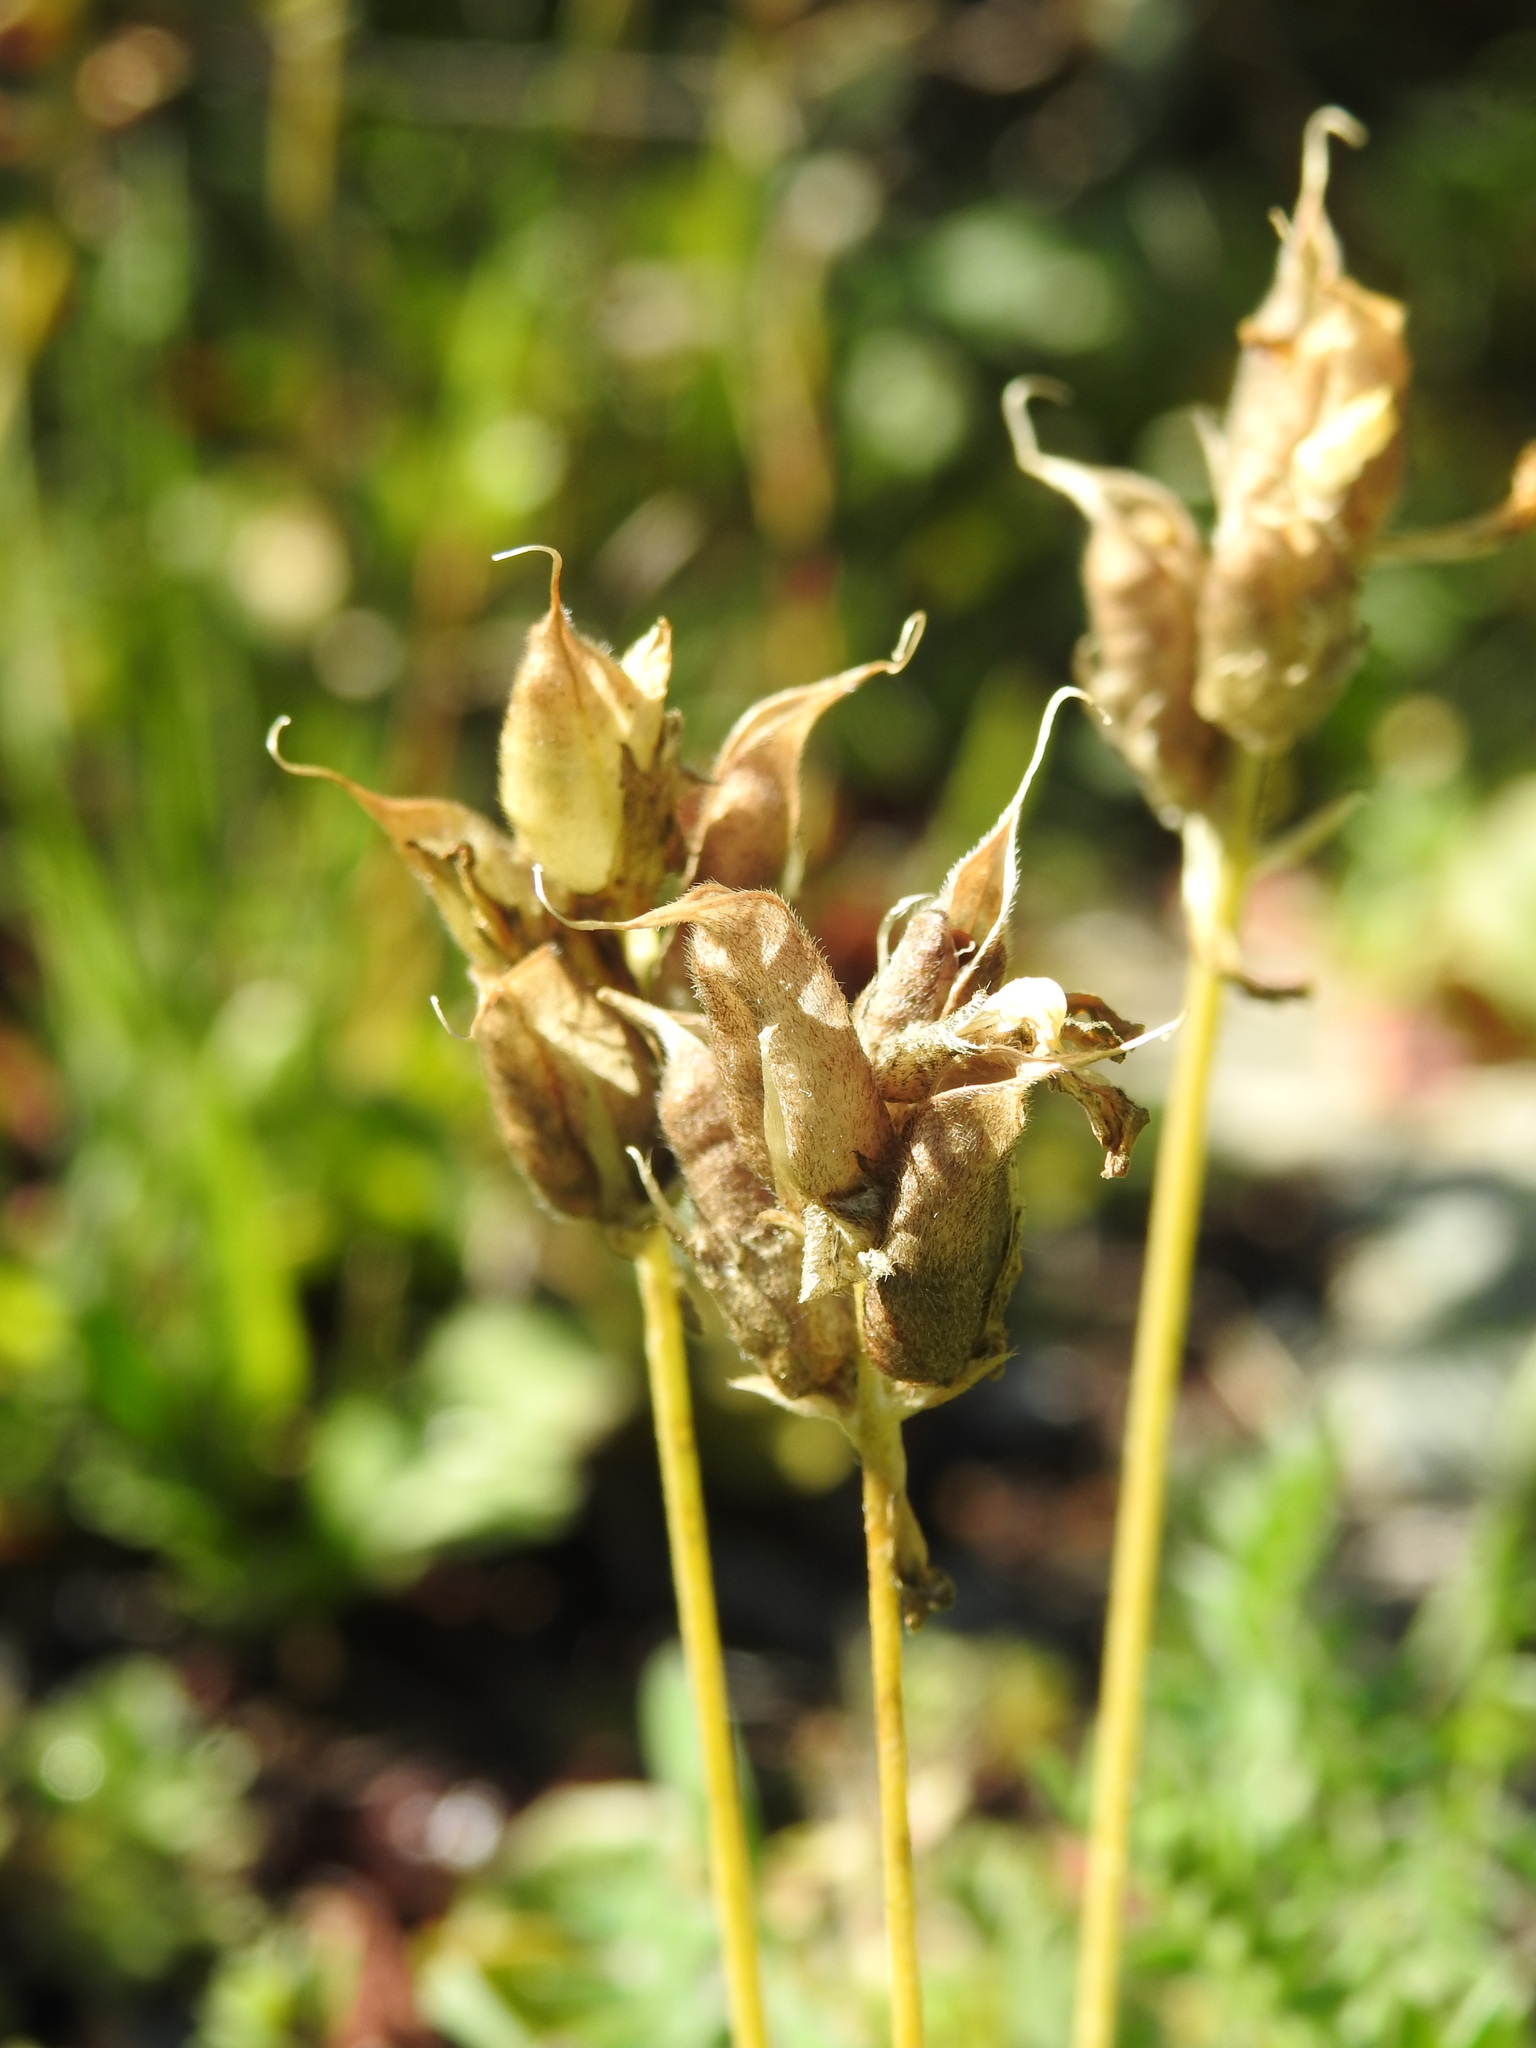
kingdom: Plantae
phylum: Tracheophyta
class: Magnoliopsida
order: Fabales
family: Fabaceae
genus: Oxytropis
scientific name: Oxytropis campestris
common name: Field locoweed
